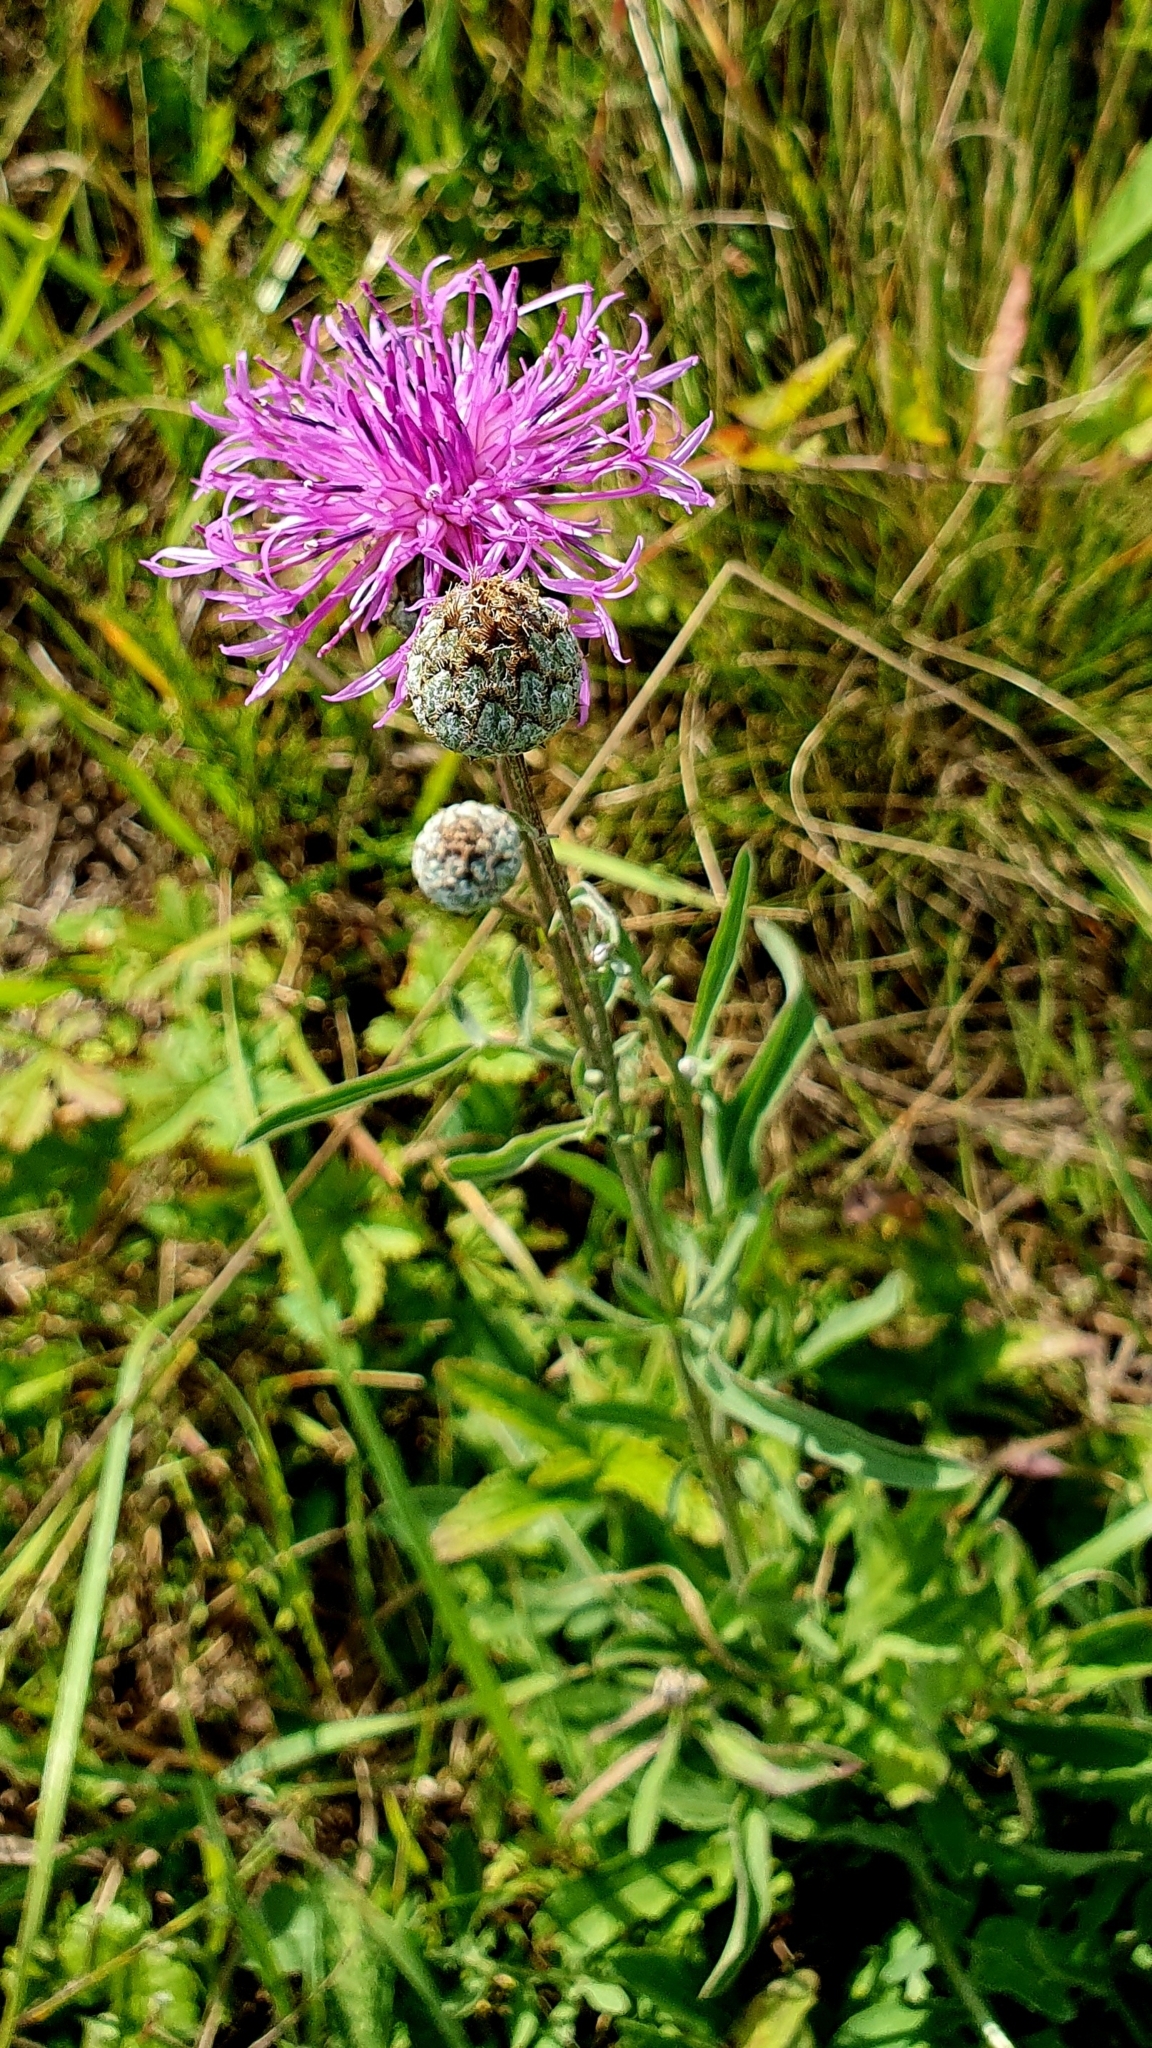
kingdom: Plantae
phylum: Tracheophyta
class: Magnoliopsida
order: Asterales
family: Asteraceae
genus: Centaurea
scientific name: Centaurea scabiosa
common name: Greater knapweed
